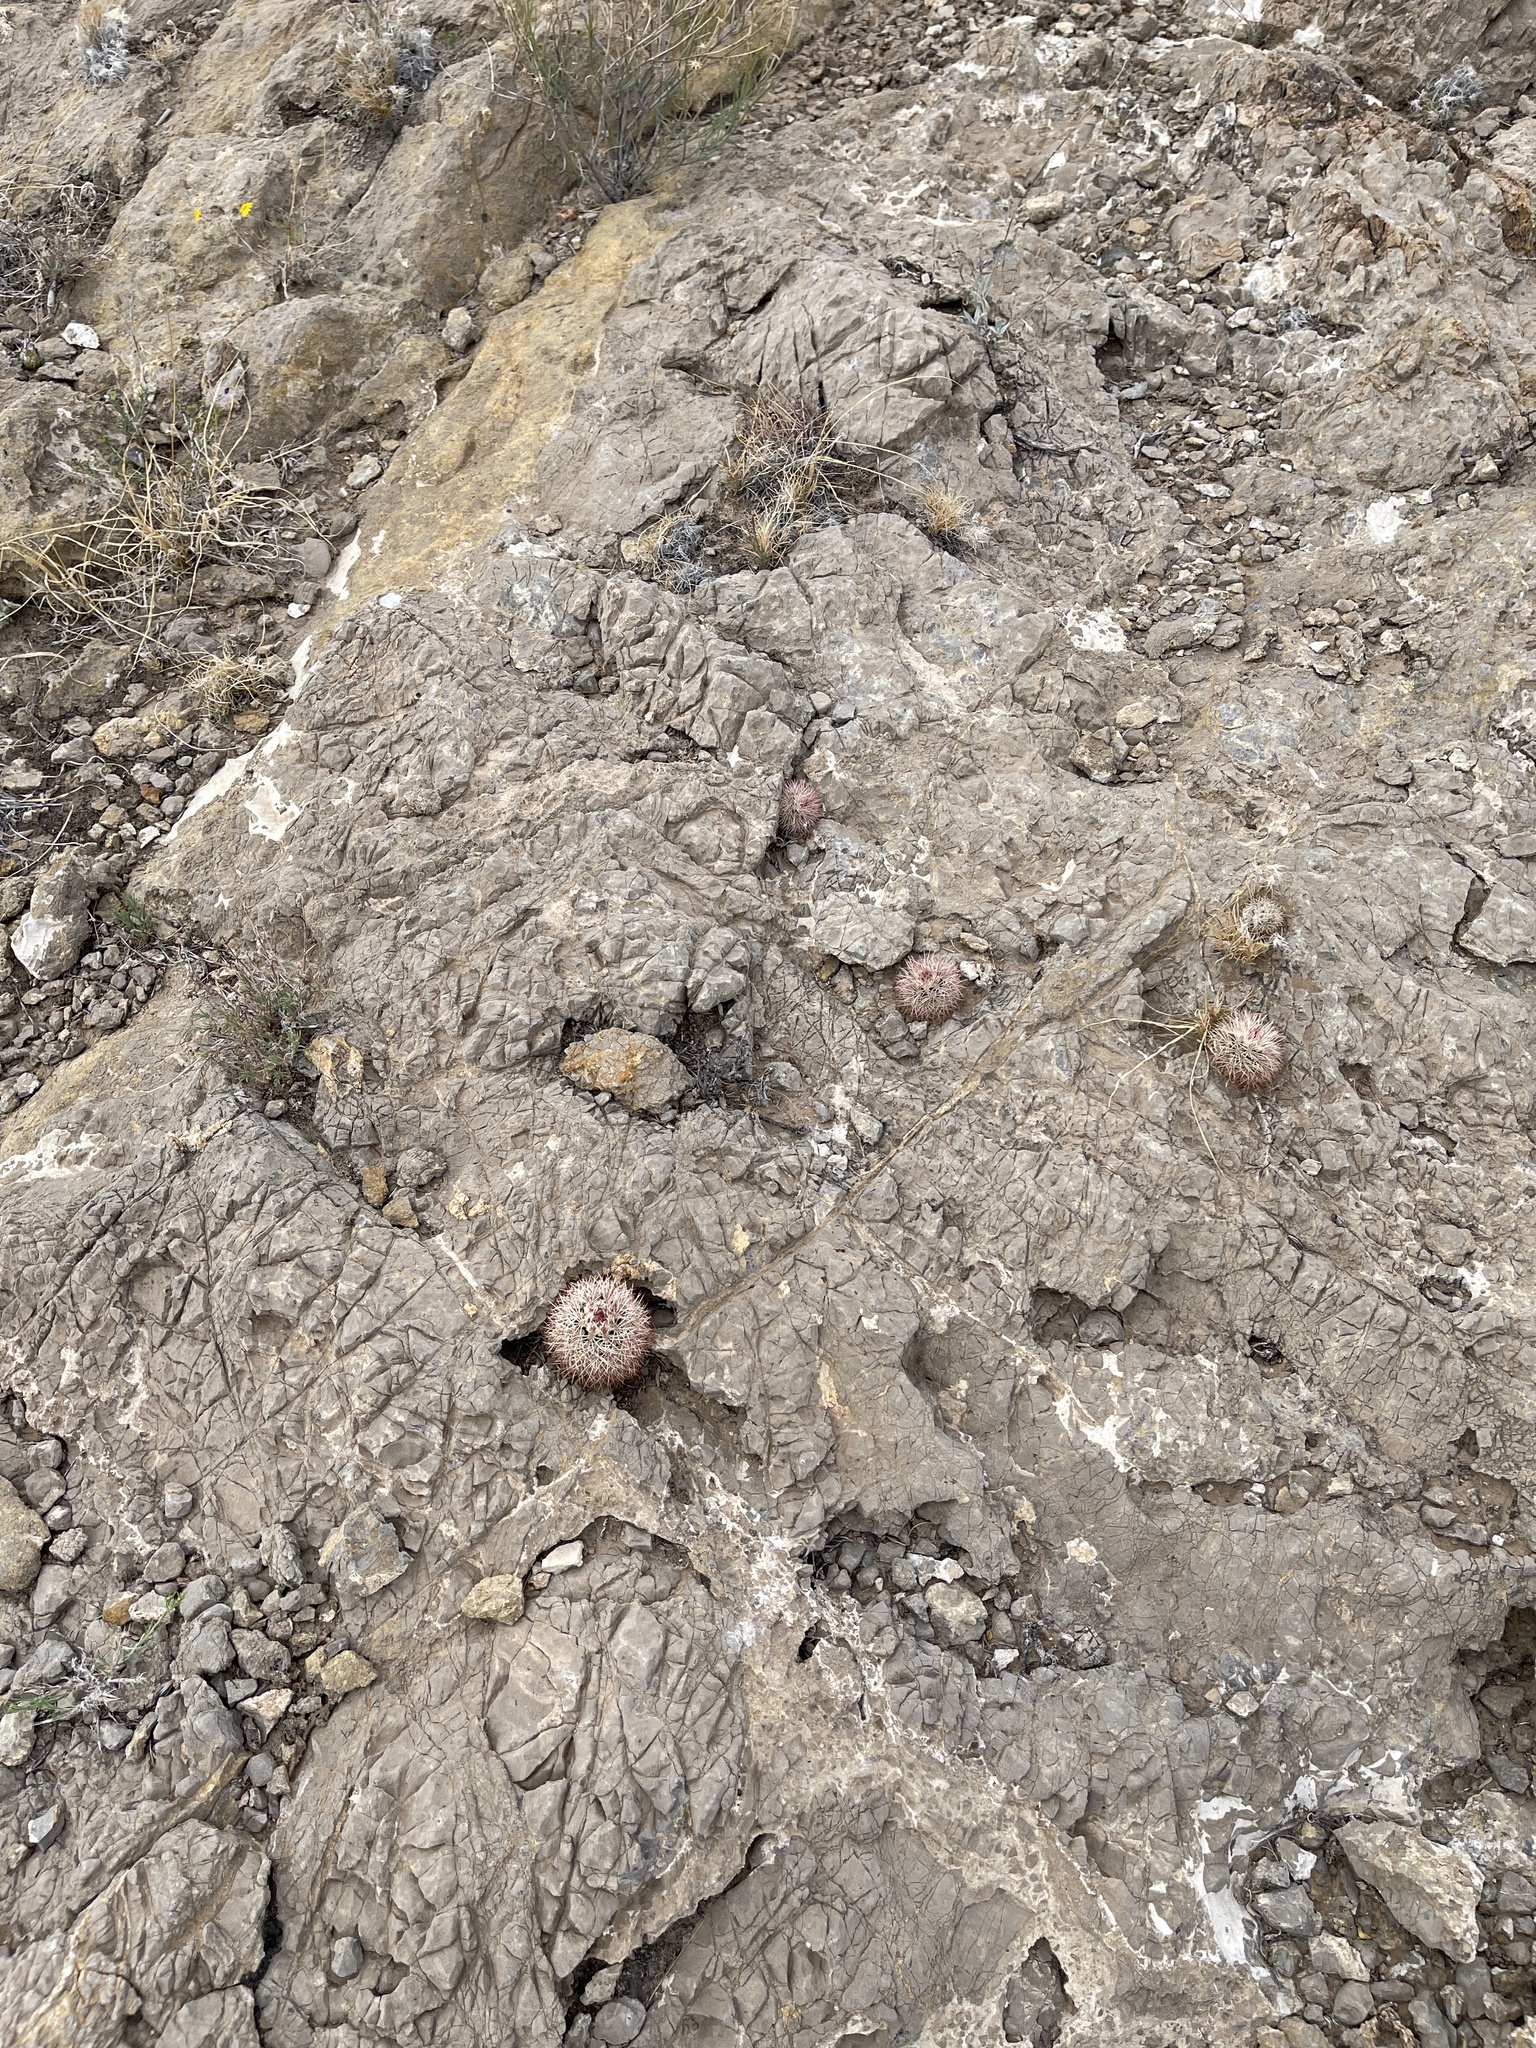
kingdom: Plantae
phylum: Tracheophyta
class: Magnoliopsida
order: Caryophyllales
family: Cactaceae
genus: Echinocereus
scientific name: Echinocereus dasyacanthus
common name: Spiny hedgehog cactus
